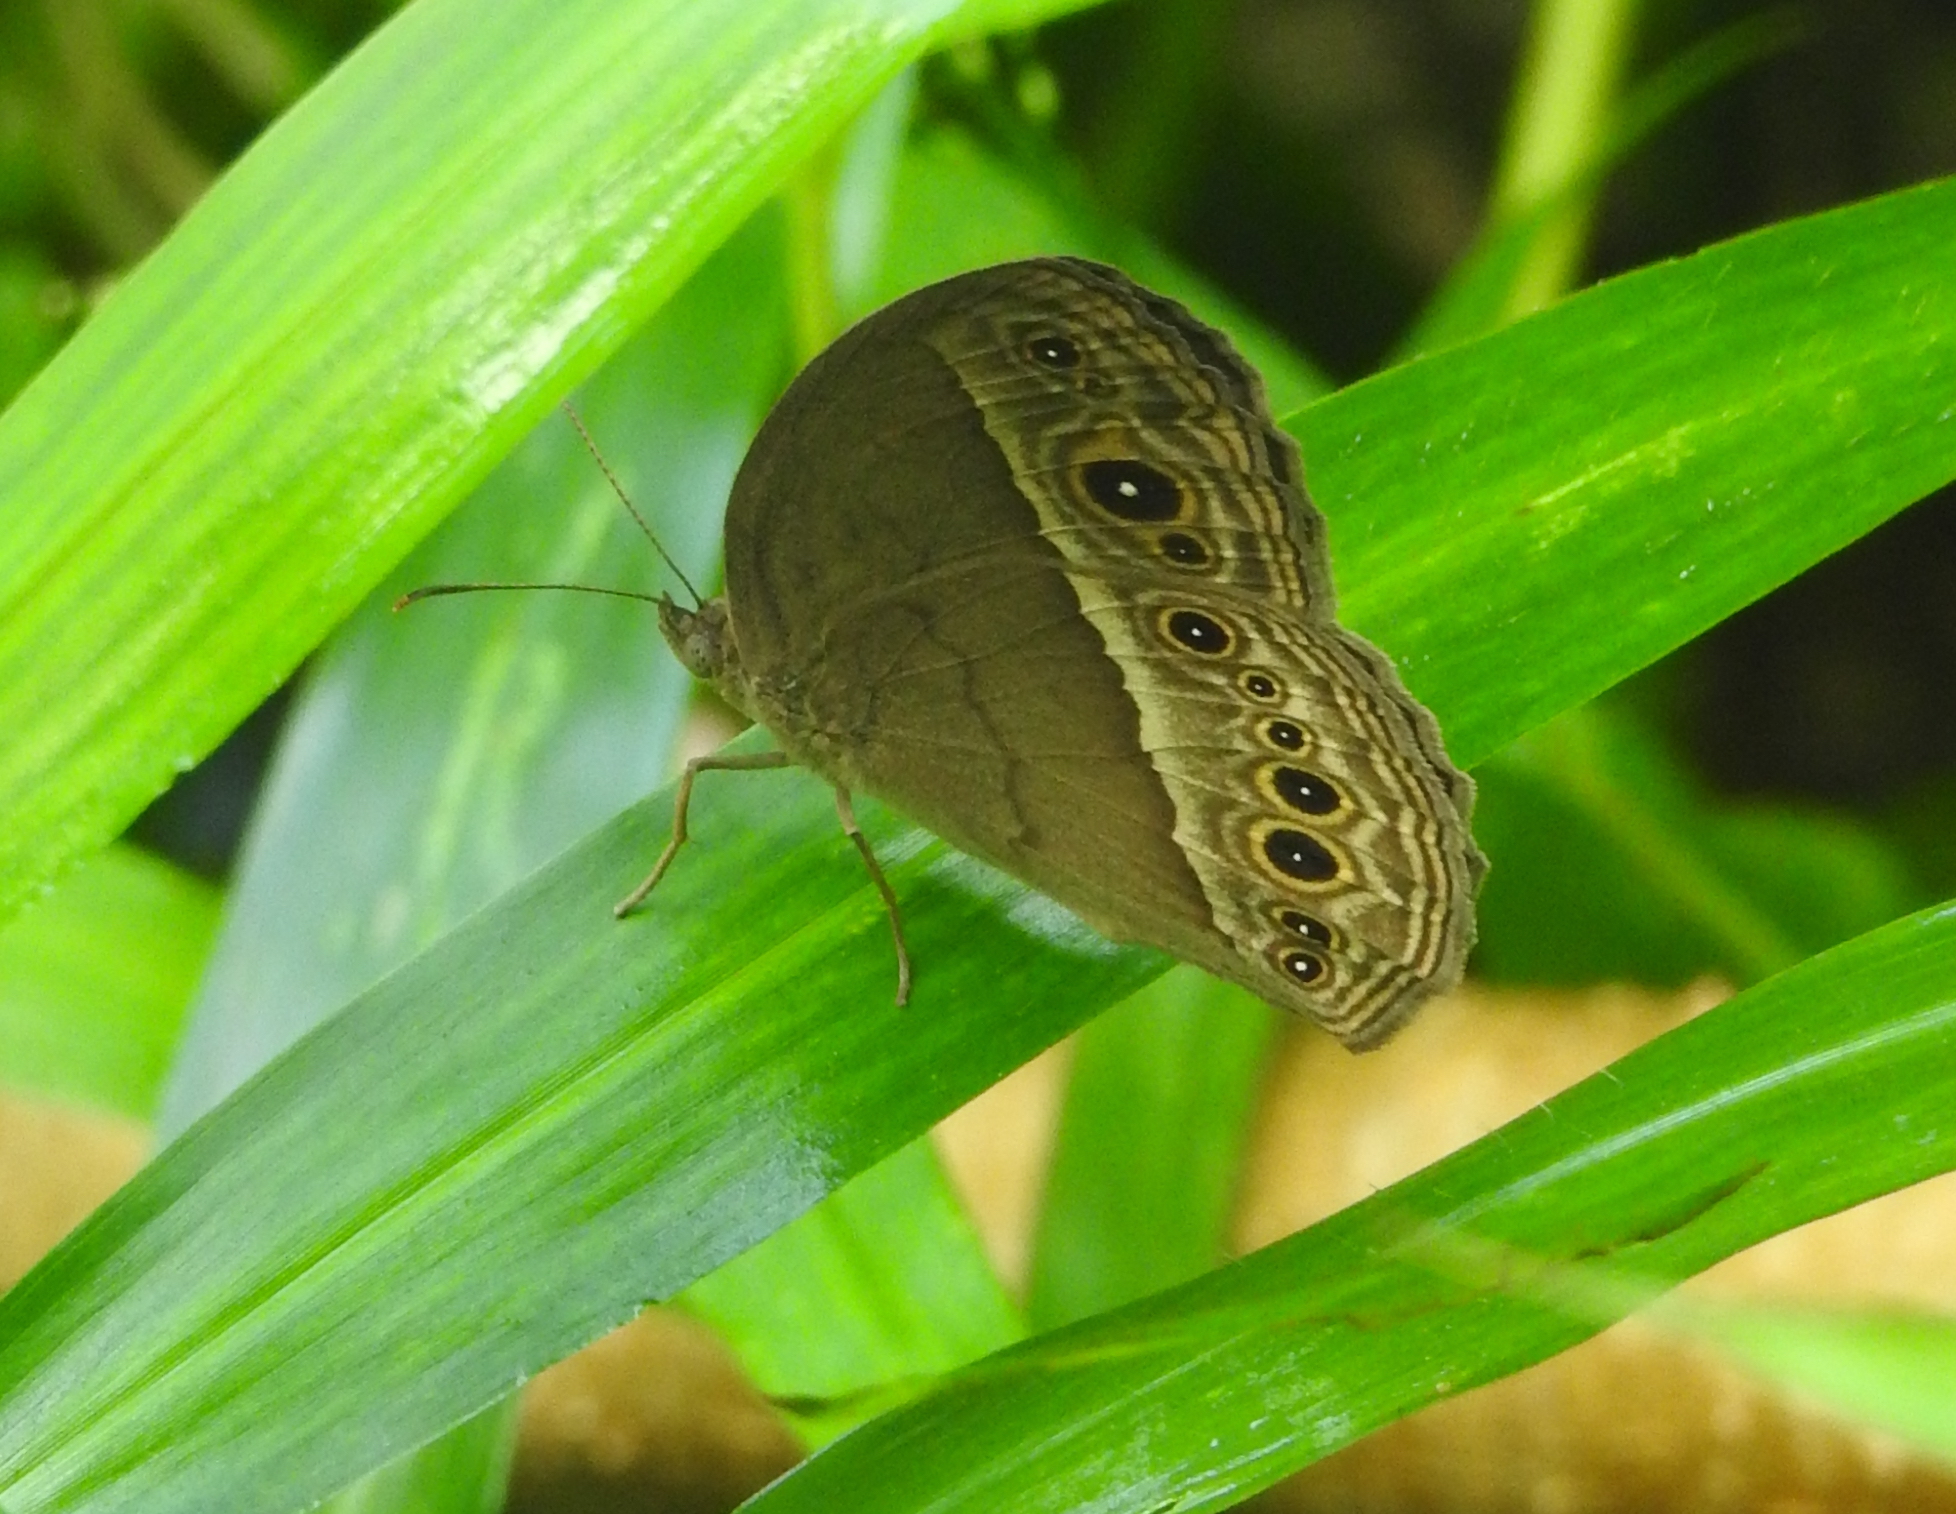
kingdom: Animalia
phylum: Arthropoda
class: Insecta
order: Lepidoptera
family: Nymphalidae
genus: Mycalesis
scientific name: Mycalesis perseoides
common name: Burmese bushbrown
